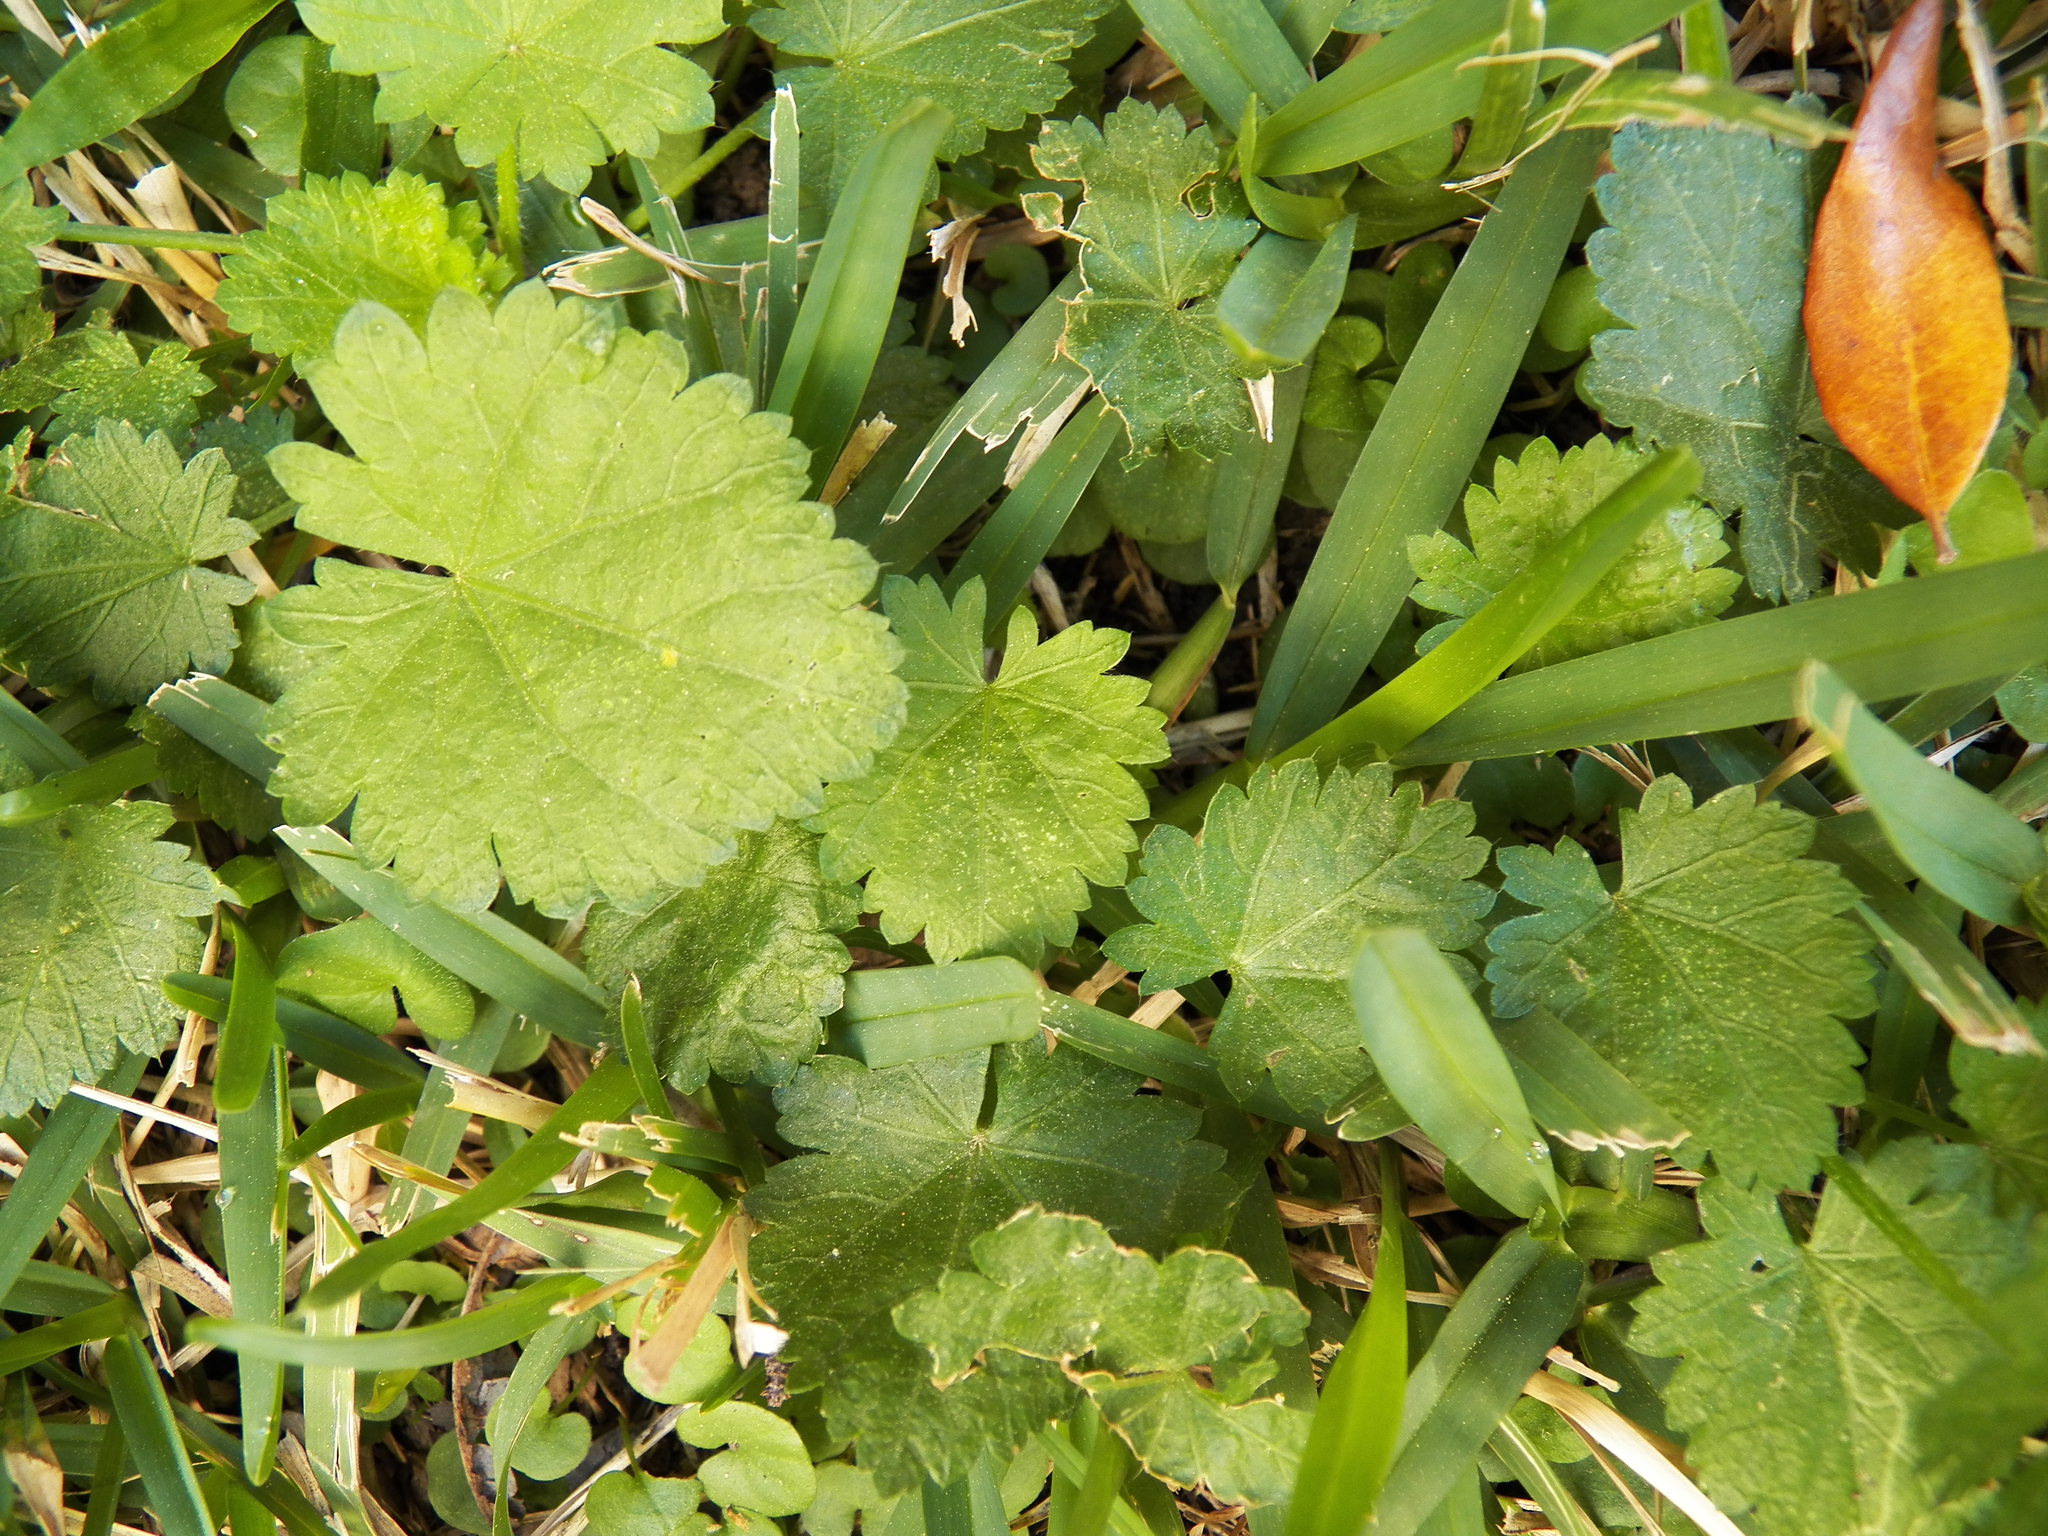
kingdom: Plantae
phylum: Tracheophyta
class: Magnoliopsida
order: Malvales
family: Malvaceae
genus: Modiola
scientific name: Modiola caroliniana
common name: Carolina bristlemallow
